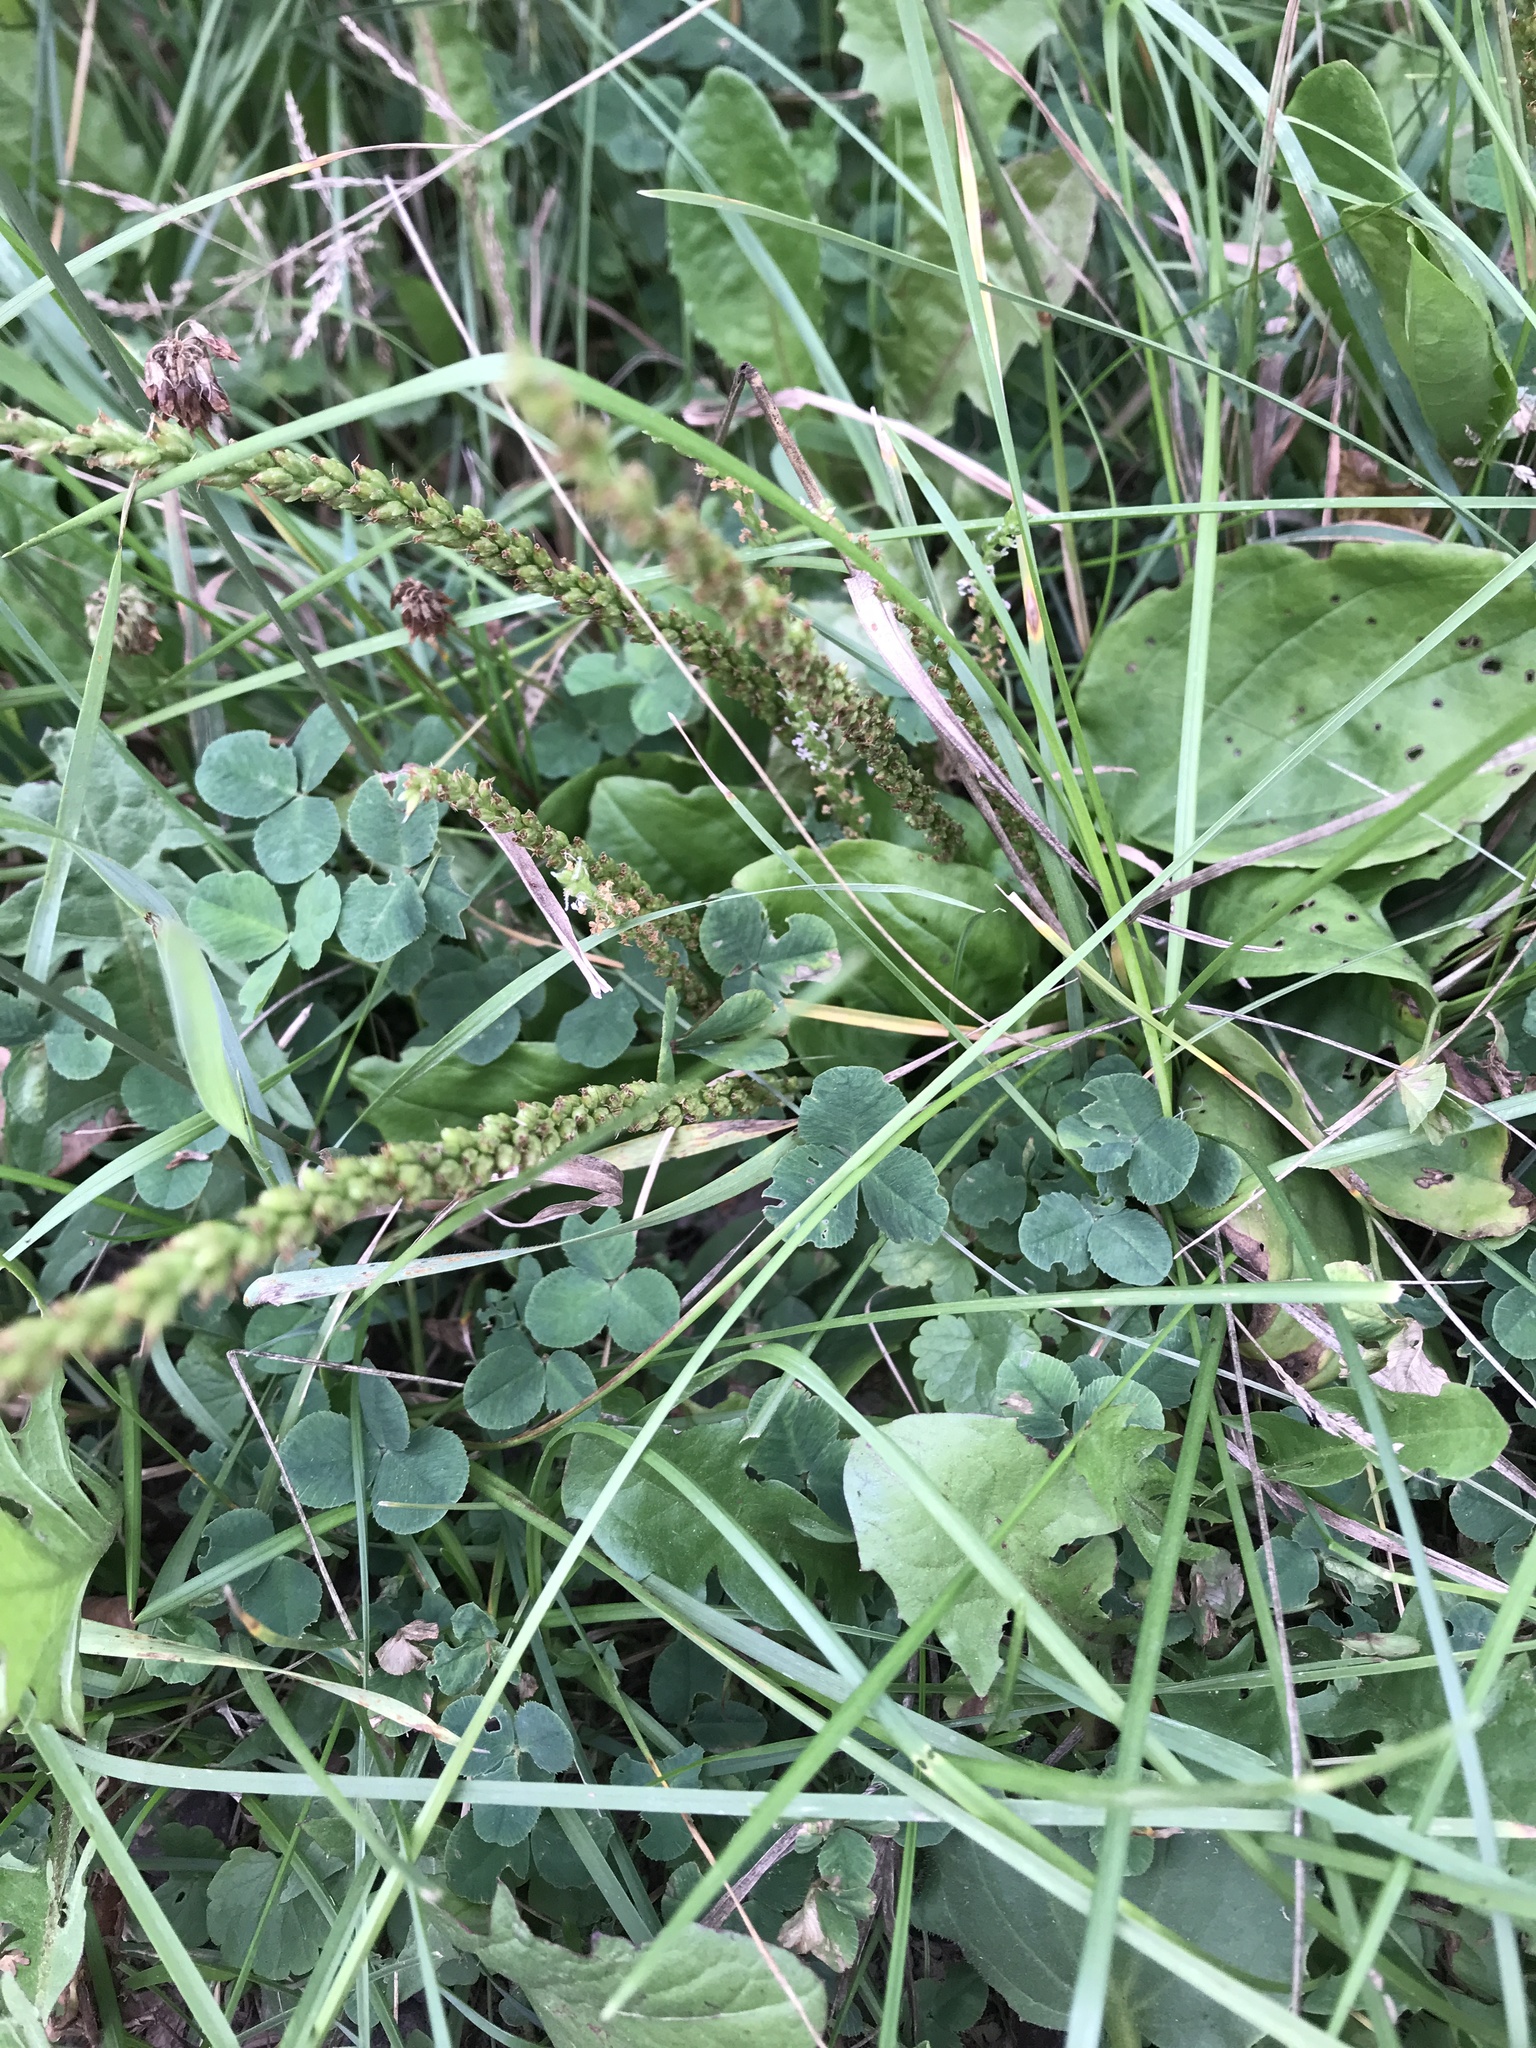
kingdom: Plantae
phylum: Tracheophyta
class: Magnoliopsida
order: Lamiales
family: Plantaginaceae
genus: Plantago
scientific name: Plantago rugelii
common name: American plantain
